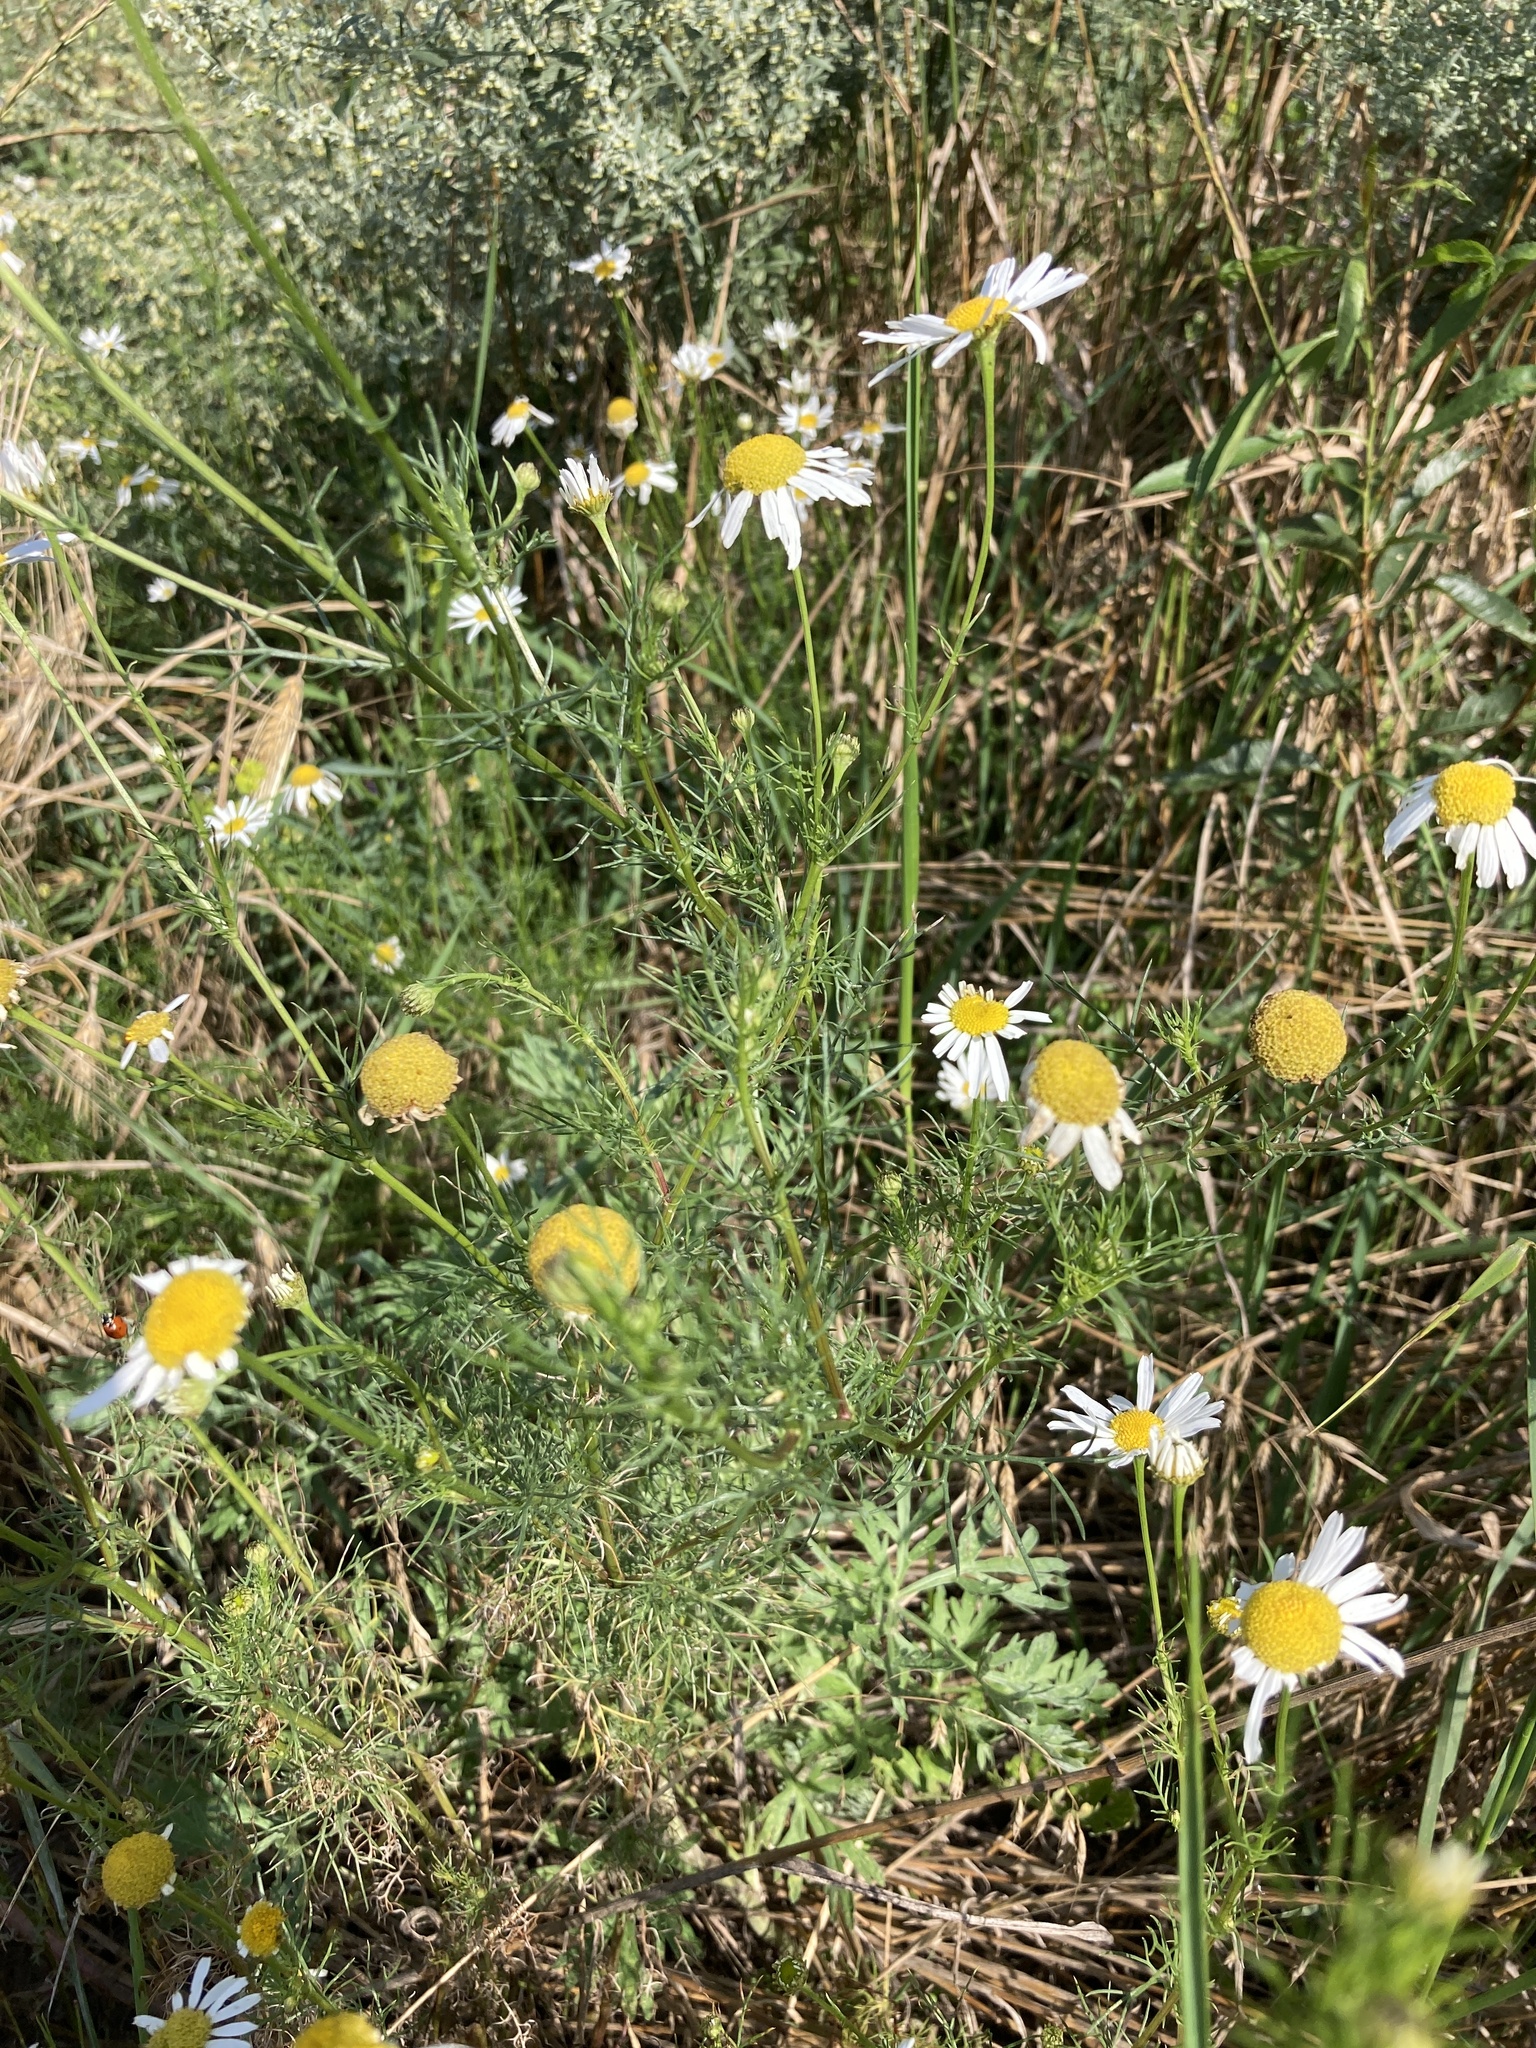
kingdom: Plantae
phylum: Tracheophyta
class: Magnoliopsida
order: Asterales
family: Asteraceae
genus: Tripleurospermum
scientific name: Tripleurospermum inodorum
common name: Scentless mayweed
